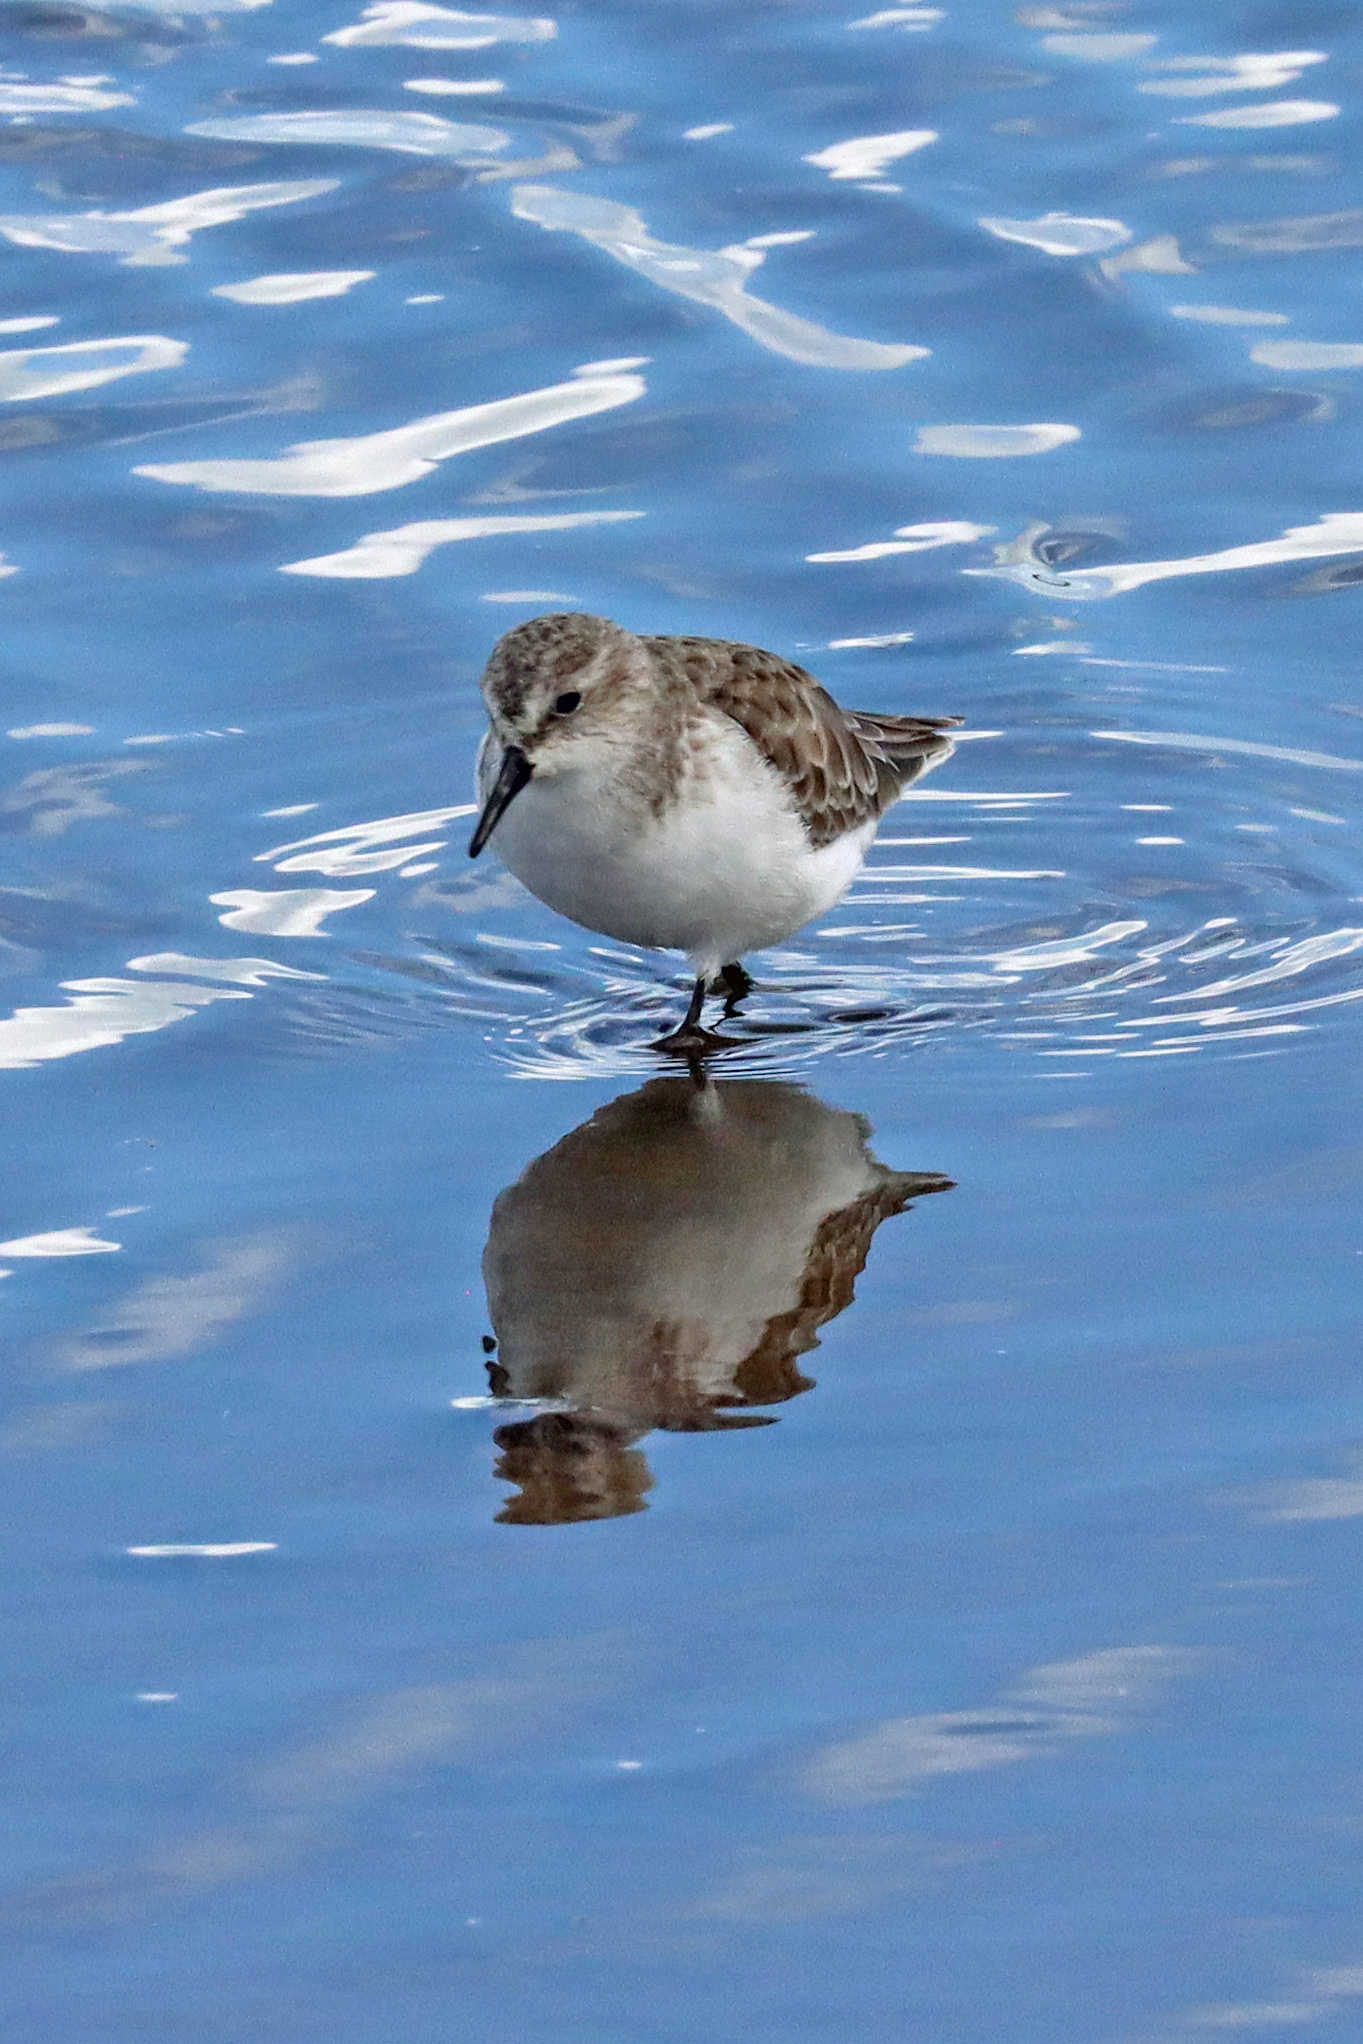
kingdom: Animalia
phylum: Chordata
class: Aves
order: Charadriiformes
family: Scolopacidae
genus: Calidris
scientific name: Calidris minuta
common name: Little stint
